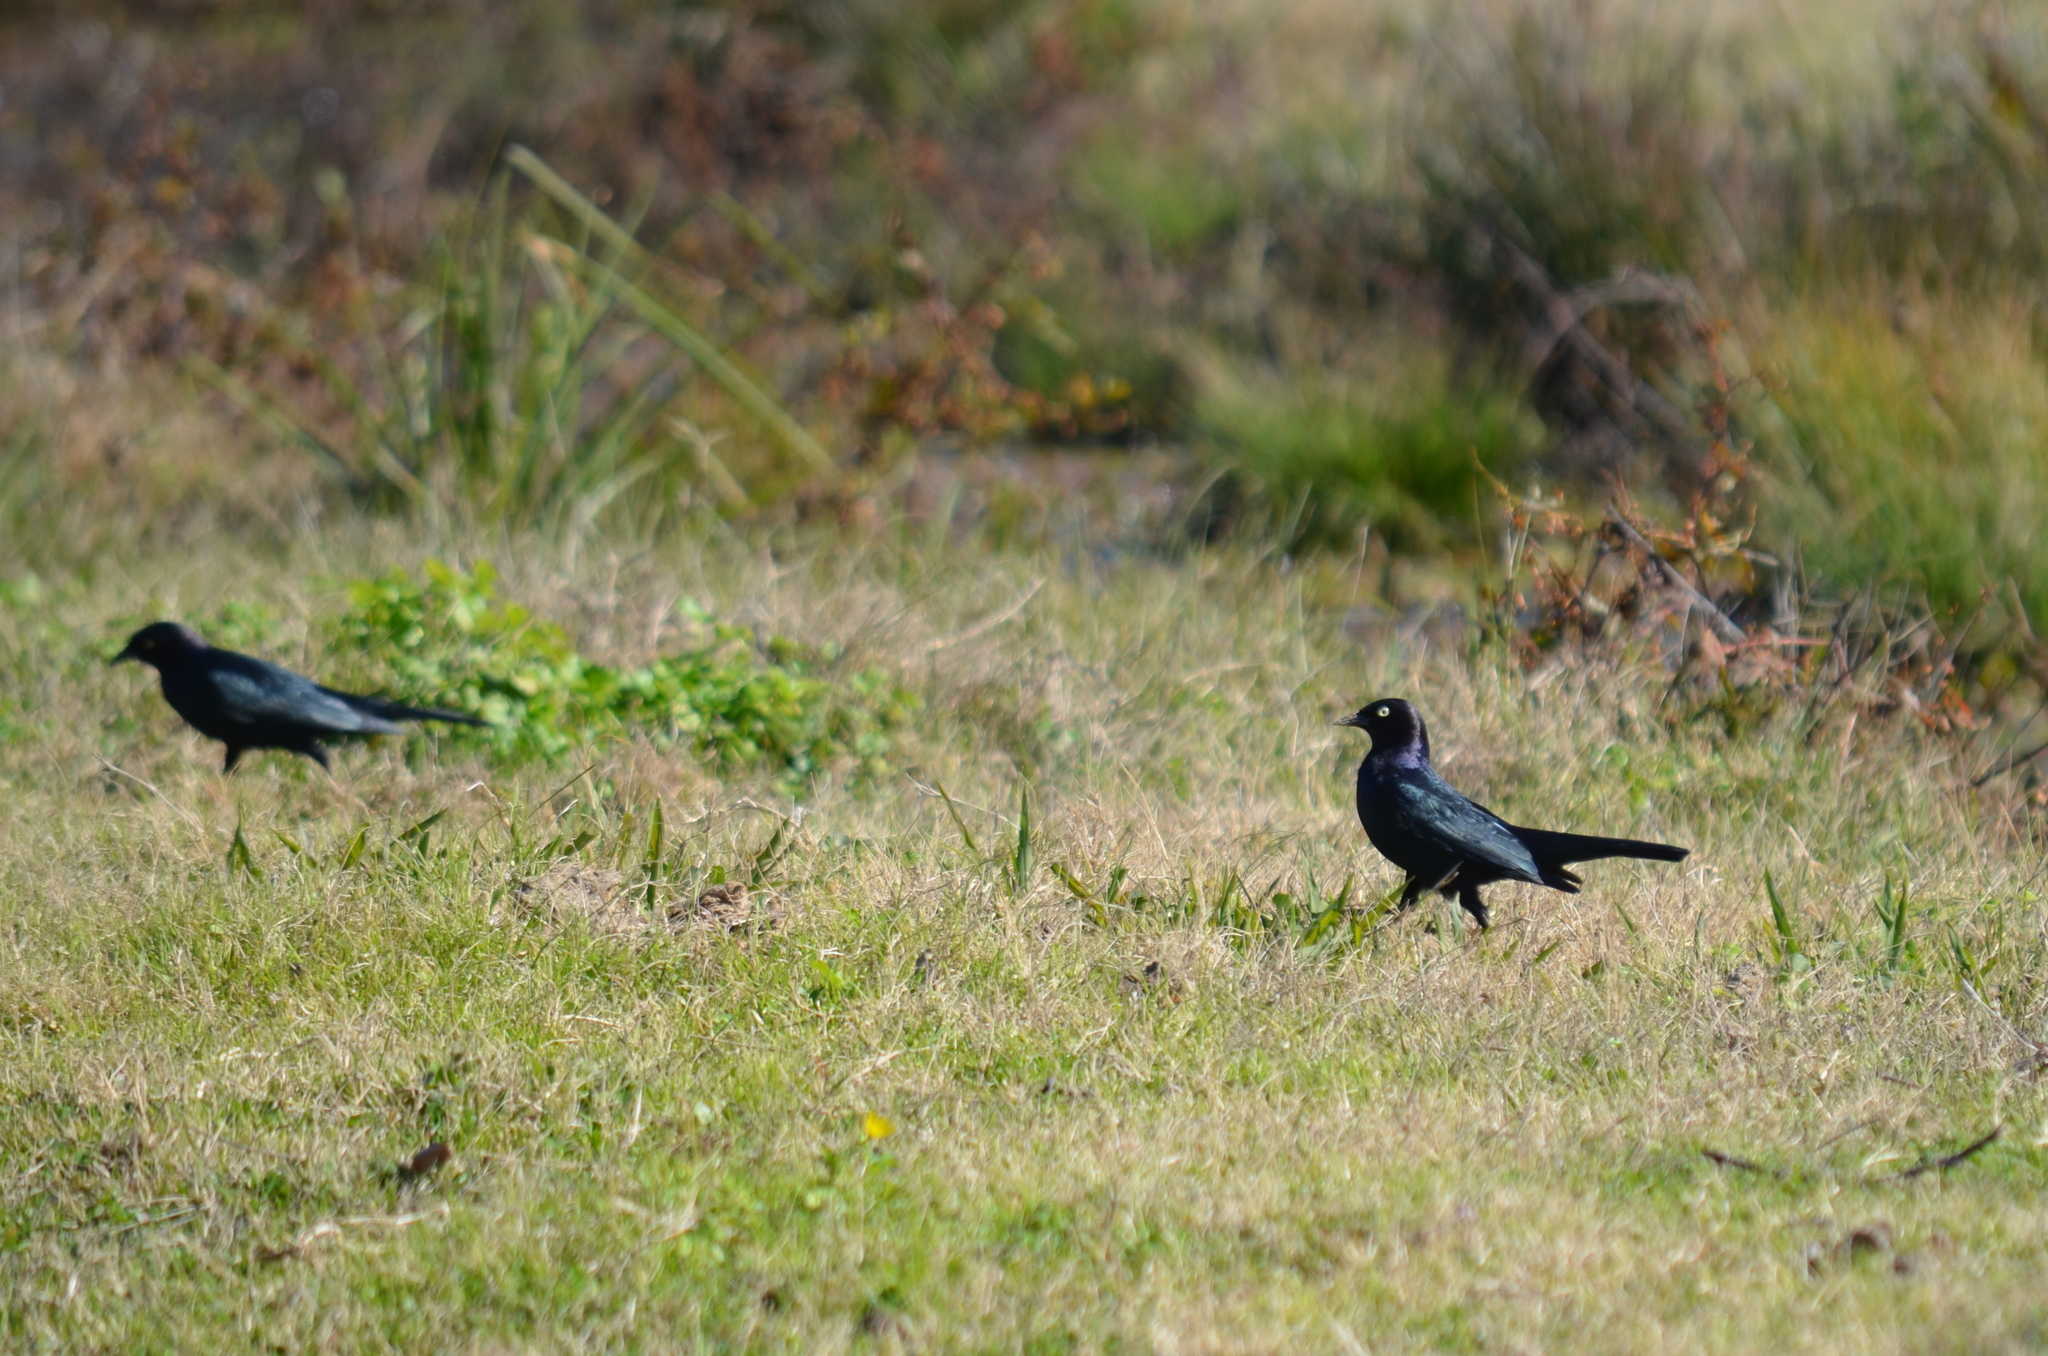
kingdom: Animalia
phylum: Chordata
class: Aves
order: Passeriformes
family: Icteridae
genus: Euphagus
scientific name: Euphagus cyanocephalus
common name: Brewer's blackbird
